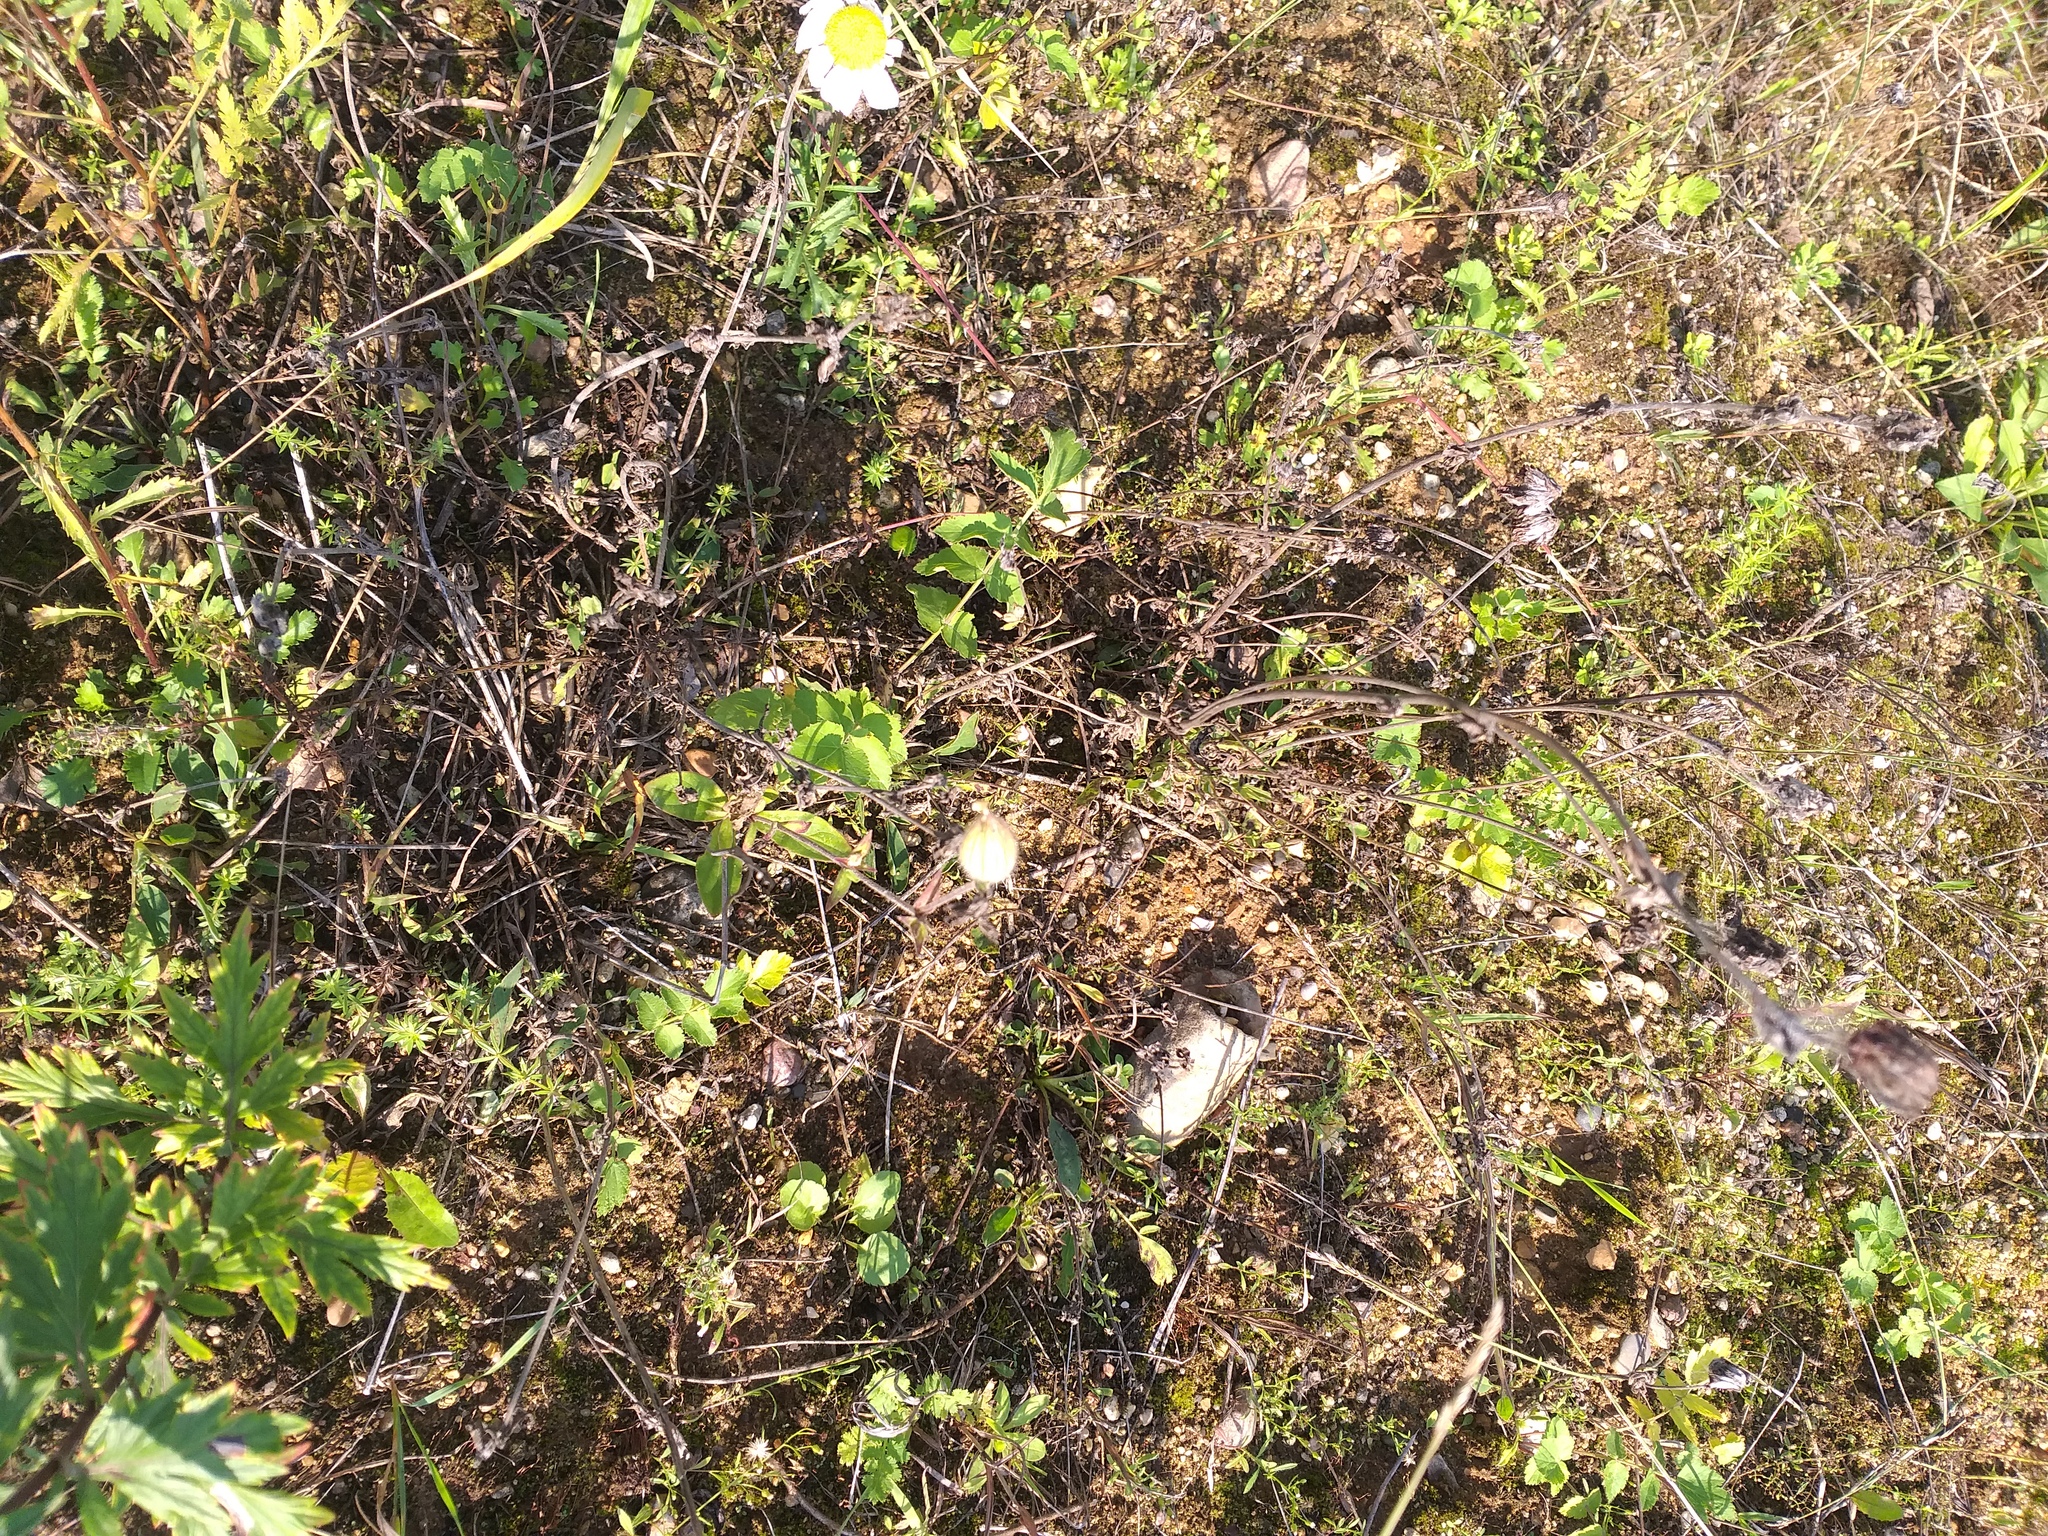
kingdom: Plantae
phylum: Tracheophyta
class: Magnoliopsida
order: Caryophyllales
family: Caryophyllaceae
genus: Silene
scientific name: Silene latifolia
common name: White campion
